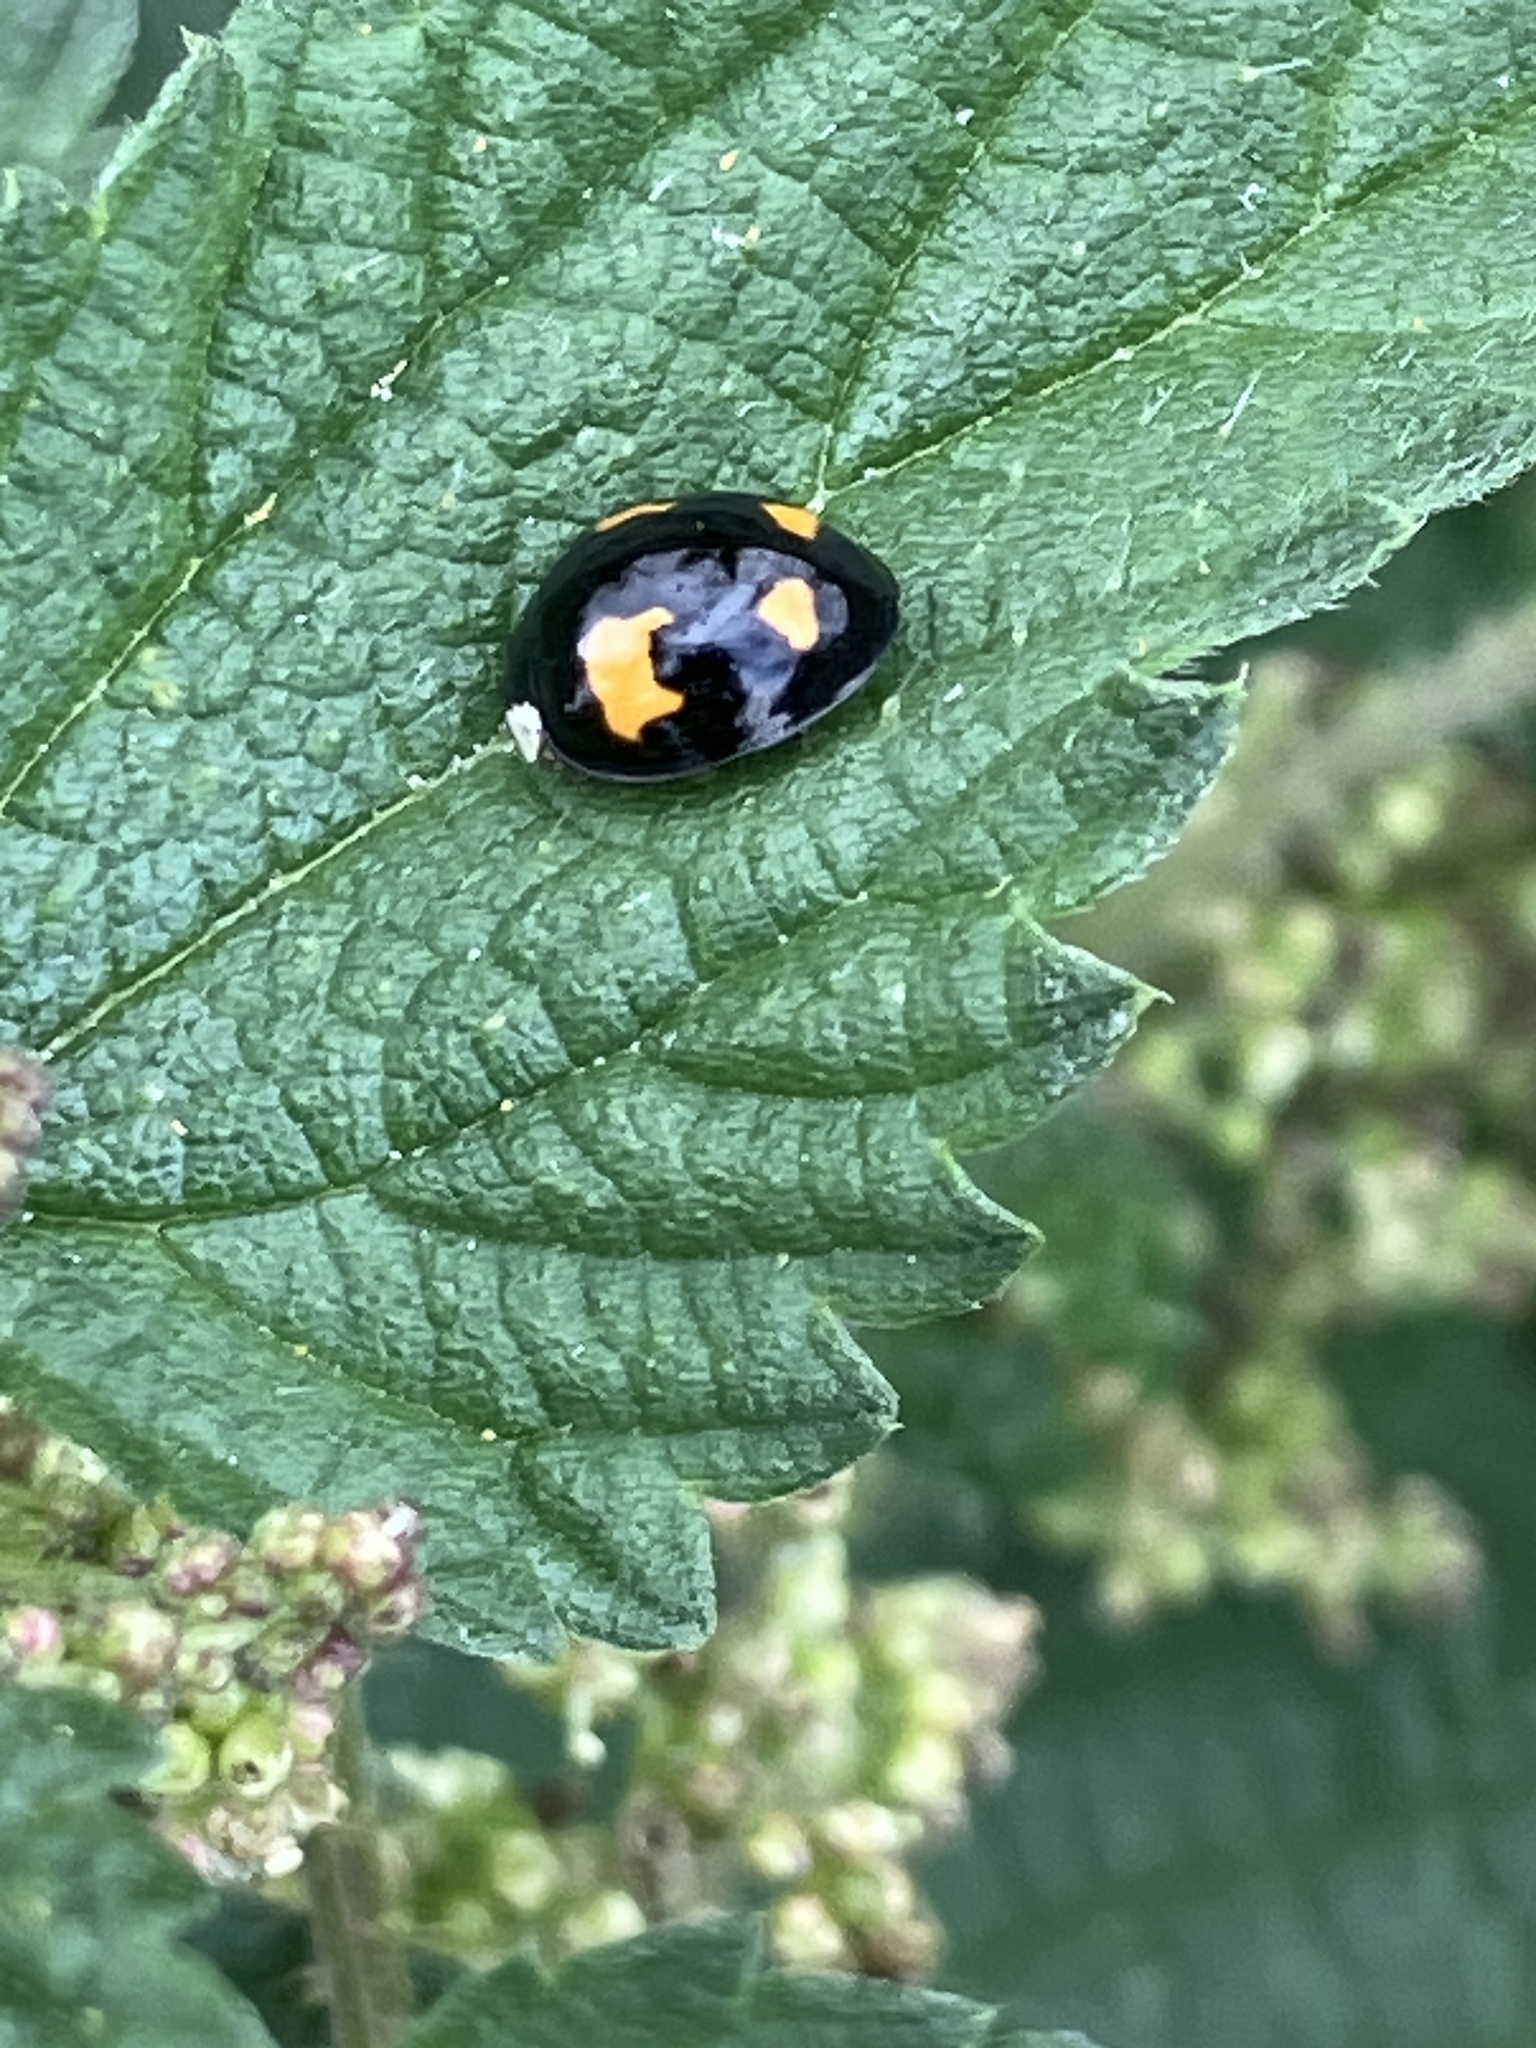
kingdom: Animalia
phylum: Arthropoda
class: Insecta
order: Coleoptera
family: Coccinellidae
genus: Harmonia
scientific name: Harmonia axyridis
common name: Harlequin ladybird
